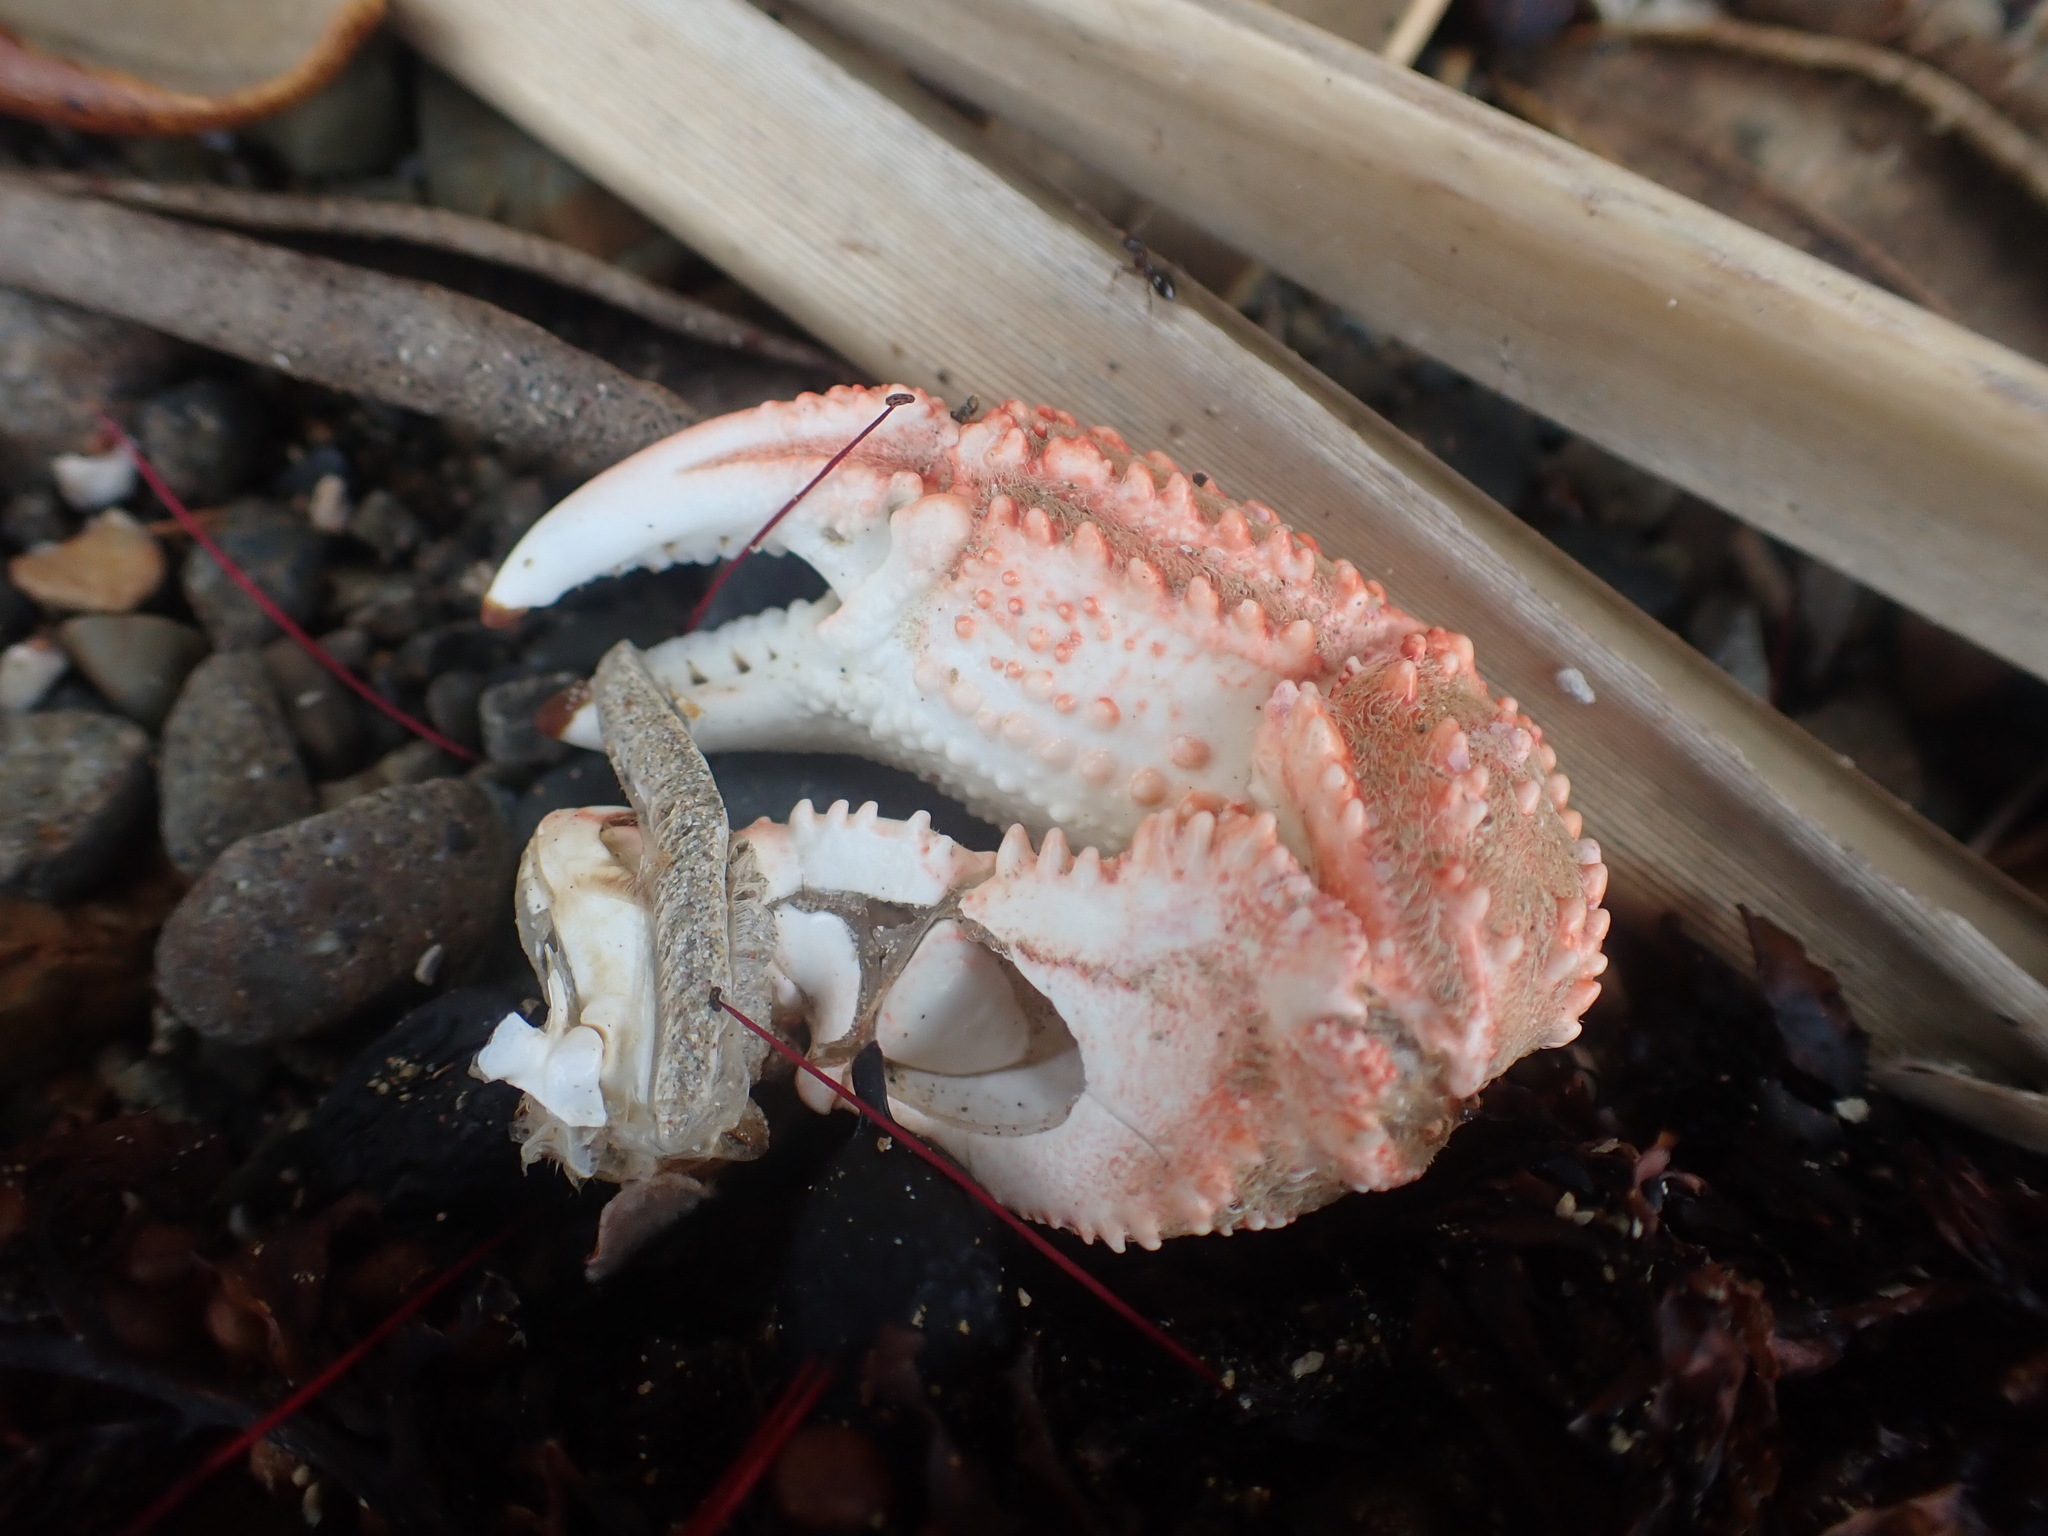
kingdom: Animalia
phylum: Arthropoda
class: Malacostraca
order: Decapoda
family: Plagusiidae
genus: Guinusia
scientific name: Guinusia chabrus
